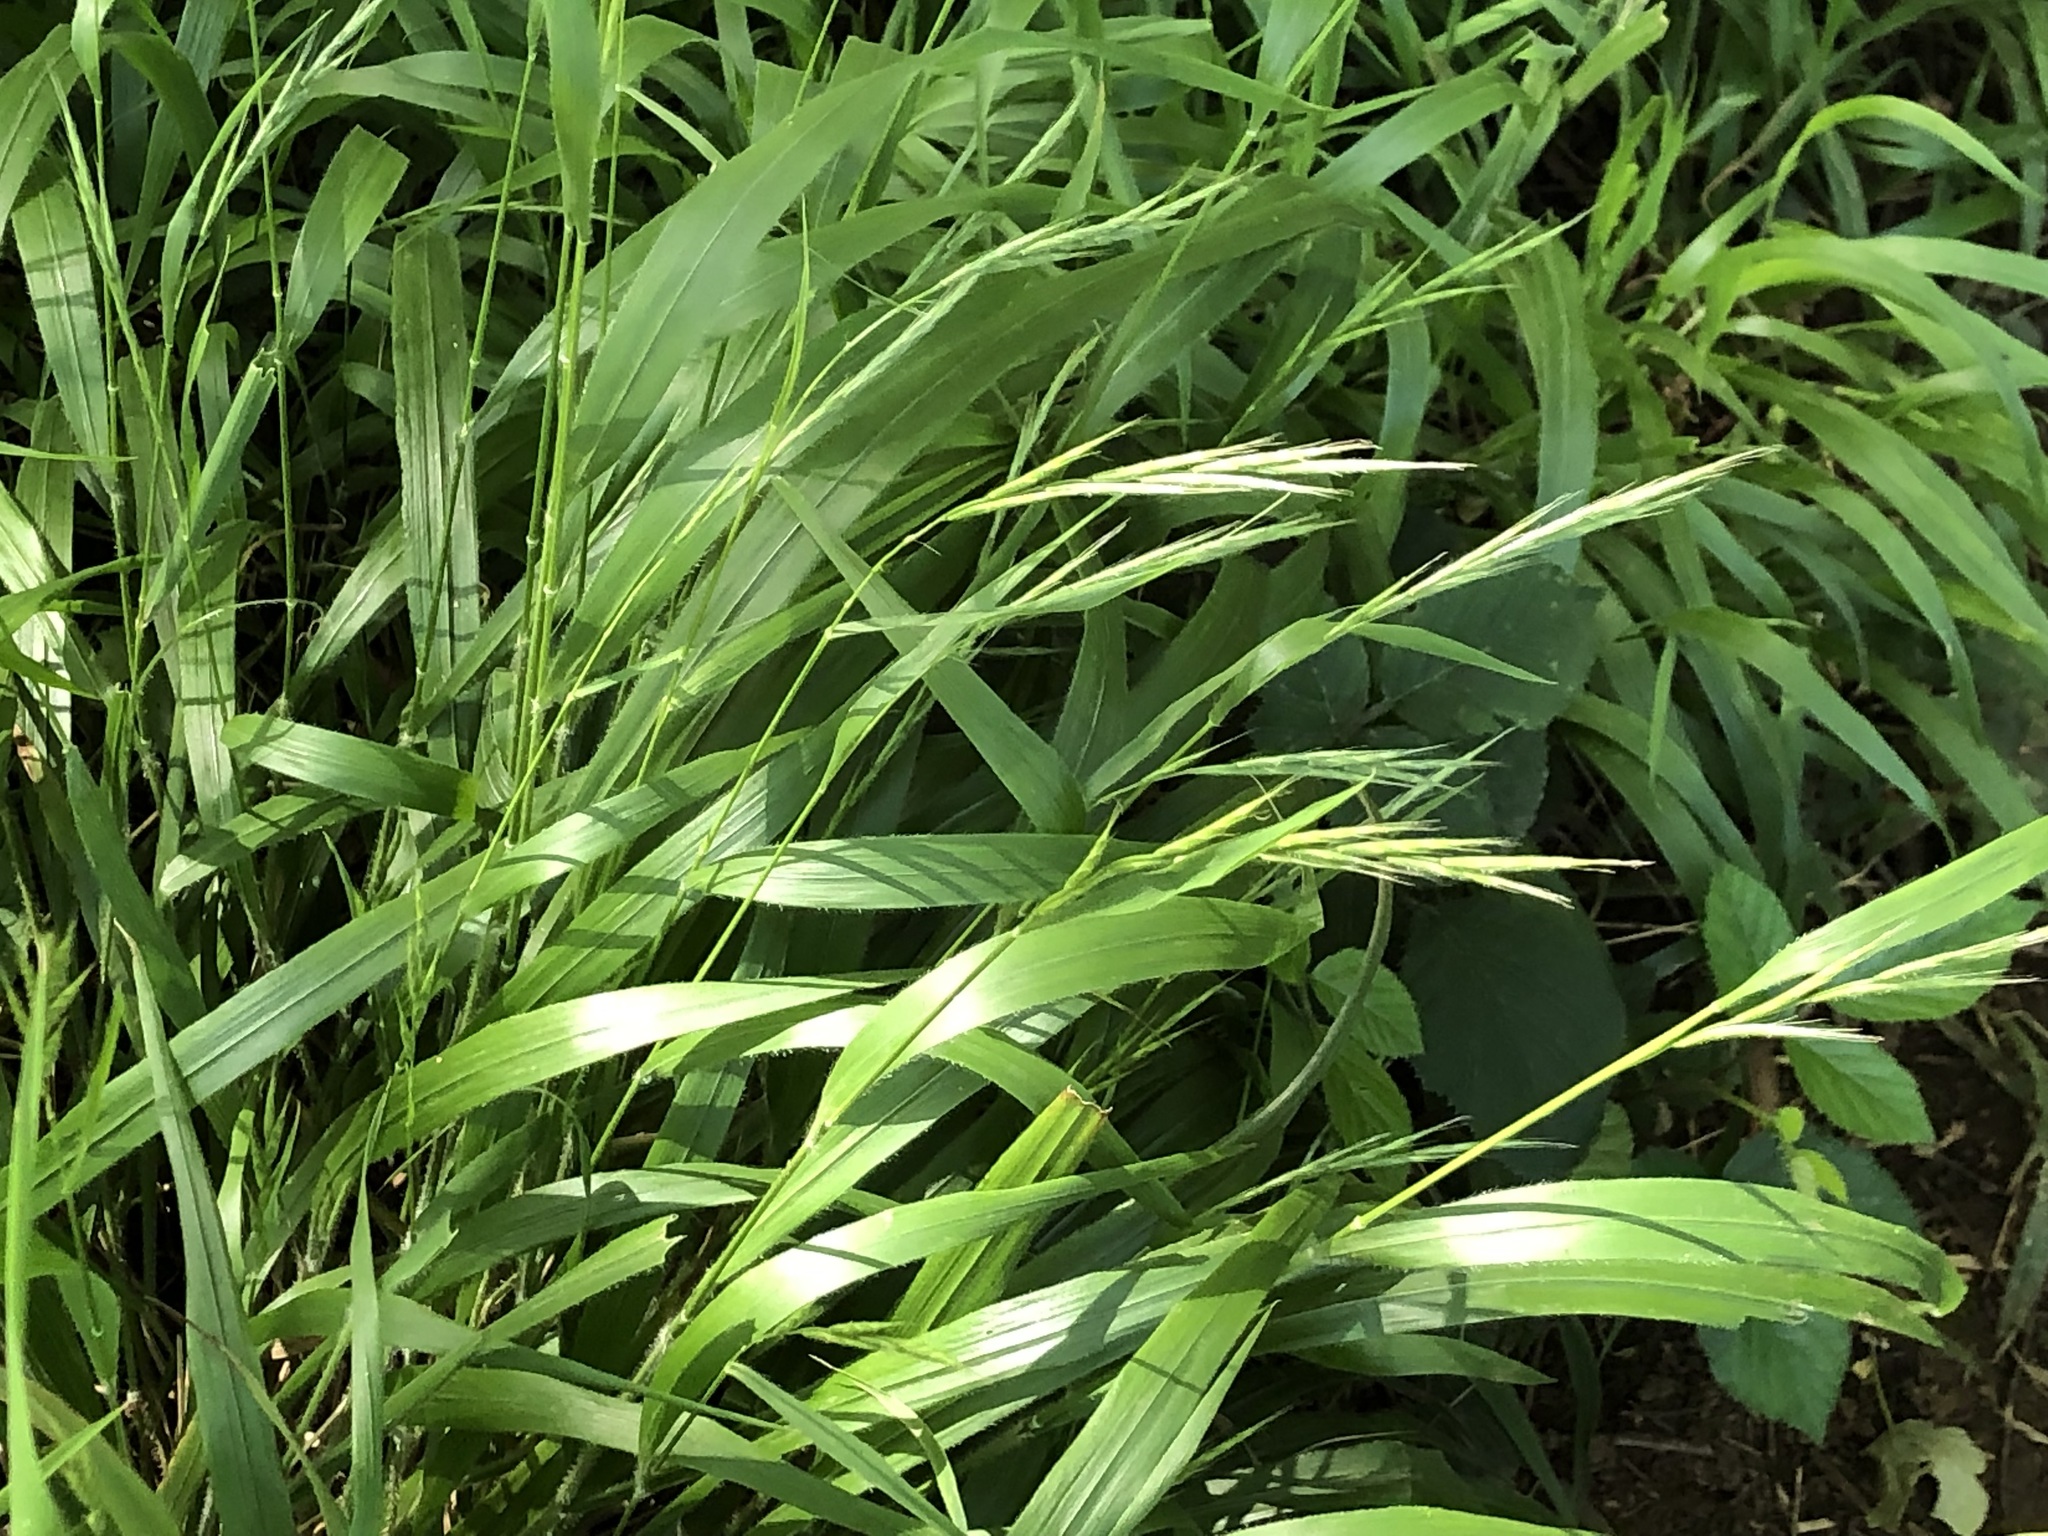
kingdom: Plantae
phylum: Tracheophyta
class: Liliopsida
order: Poales
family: Poaceae
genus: Brachypodium
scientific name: Brachypodium sylvaticum
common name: False-brome
